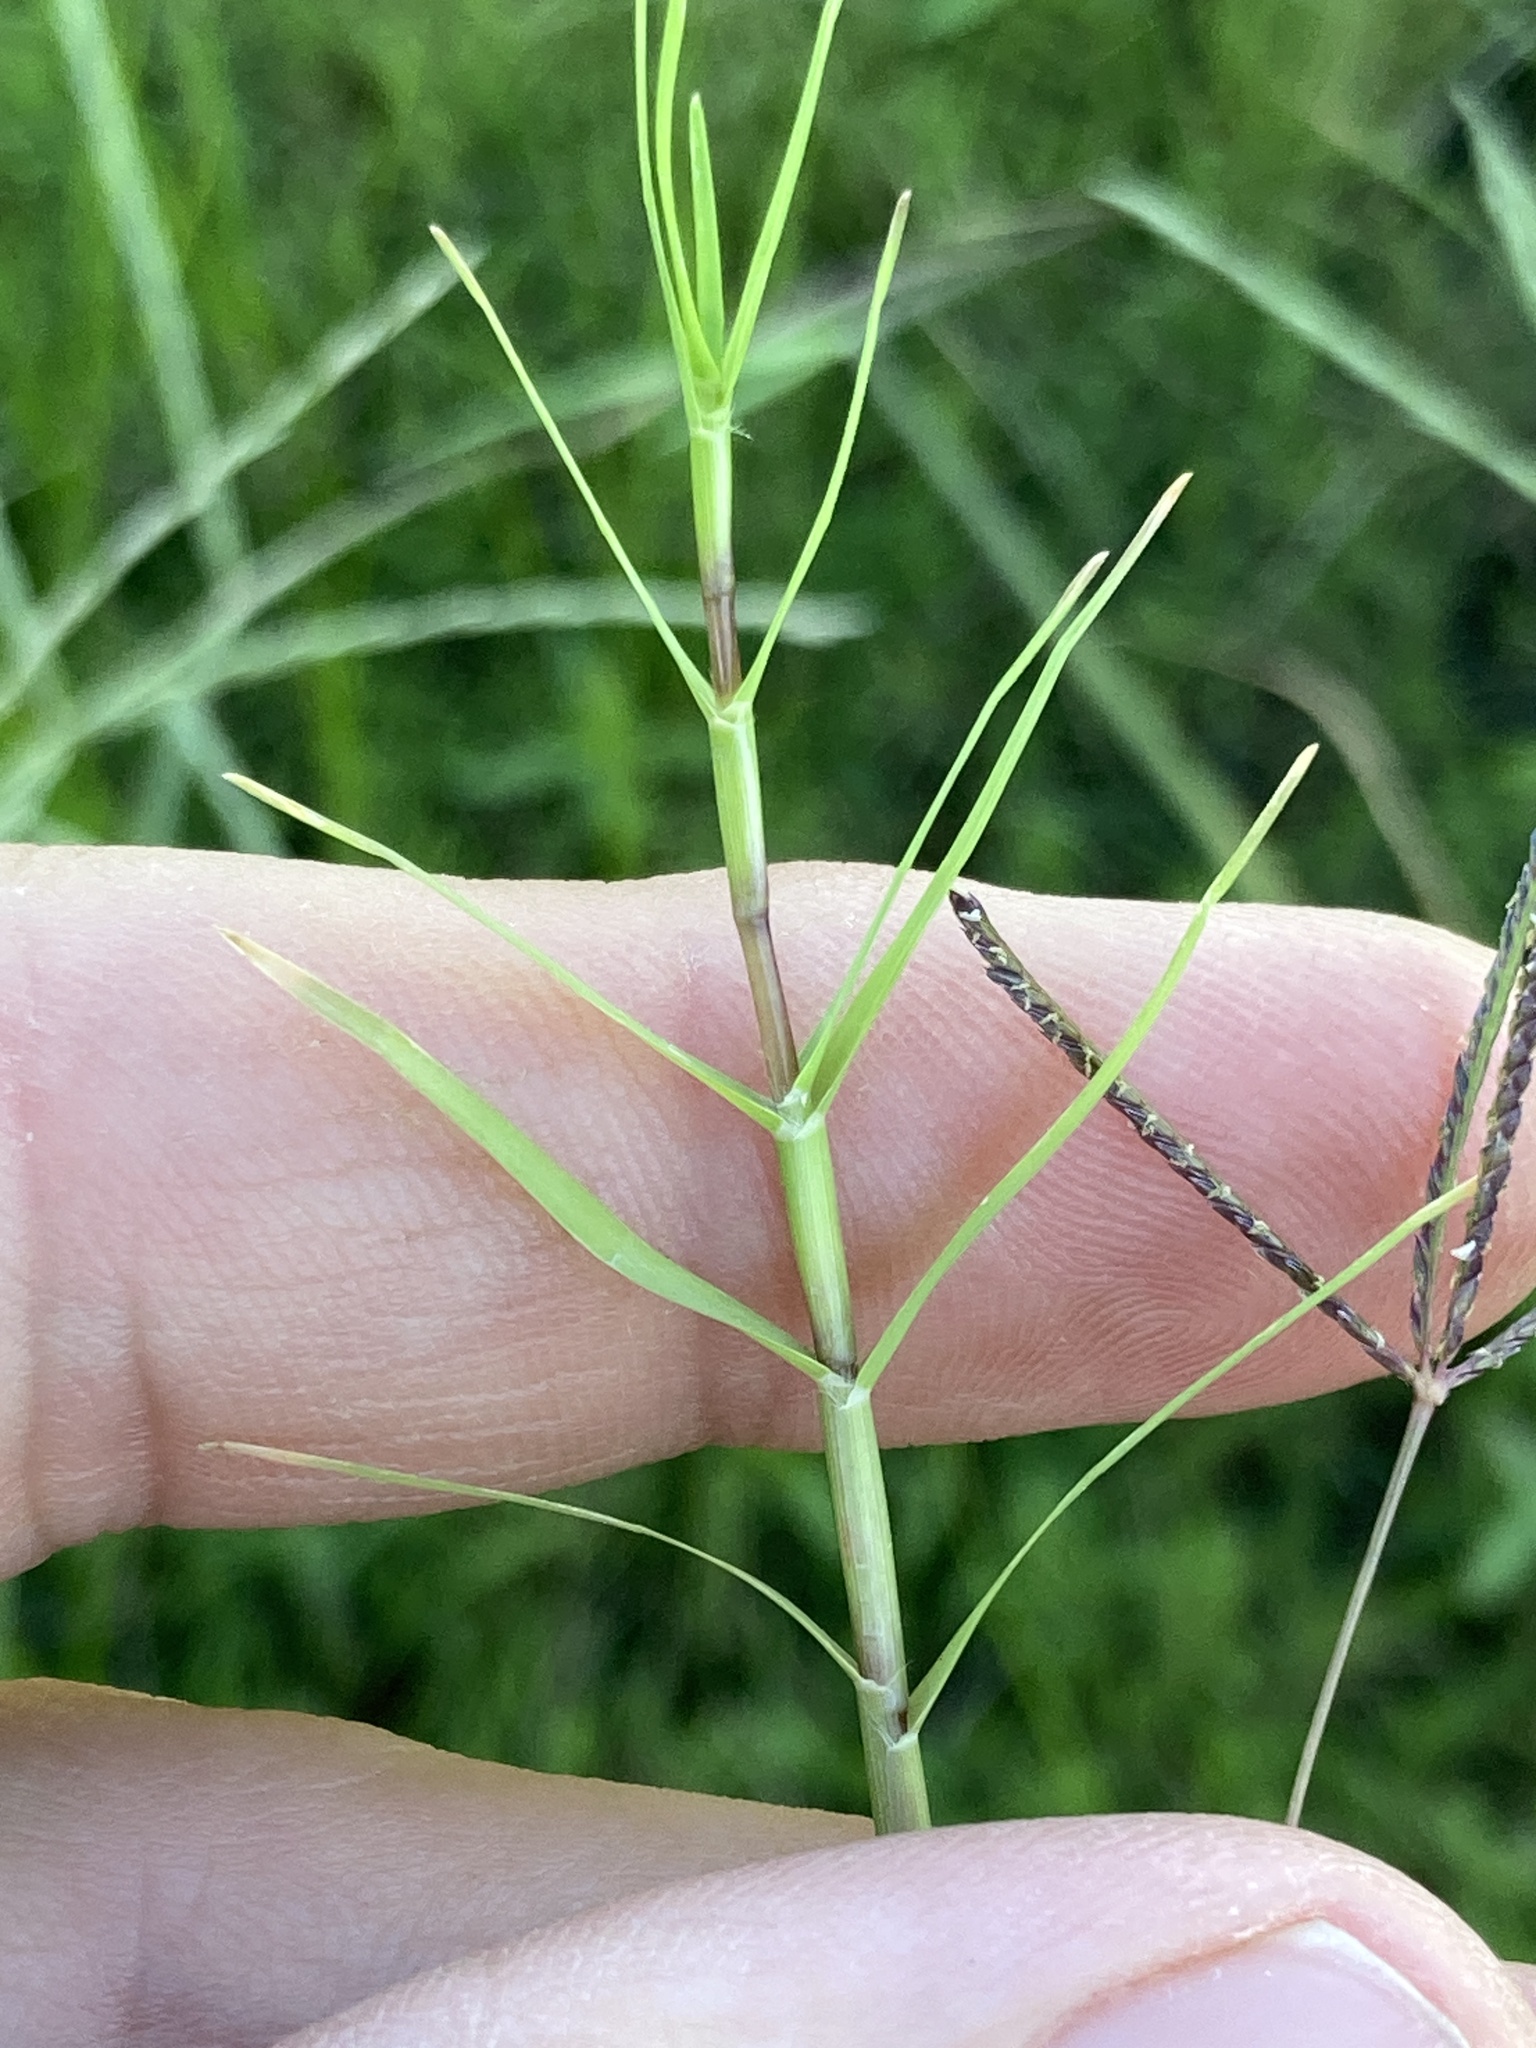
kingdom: Plantae
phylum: Tracheophyta
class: Liliopsida
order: Poales
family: Poaceae
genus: Cynodon
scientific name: Cynodon dactylon
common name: Bermuda grass
